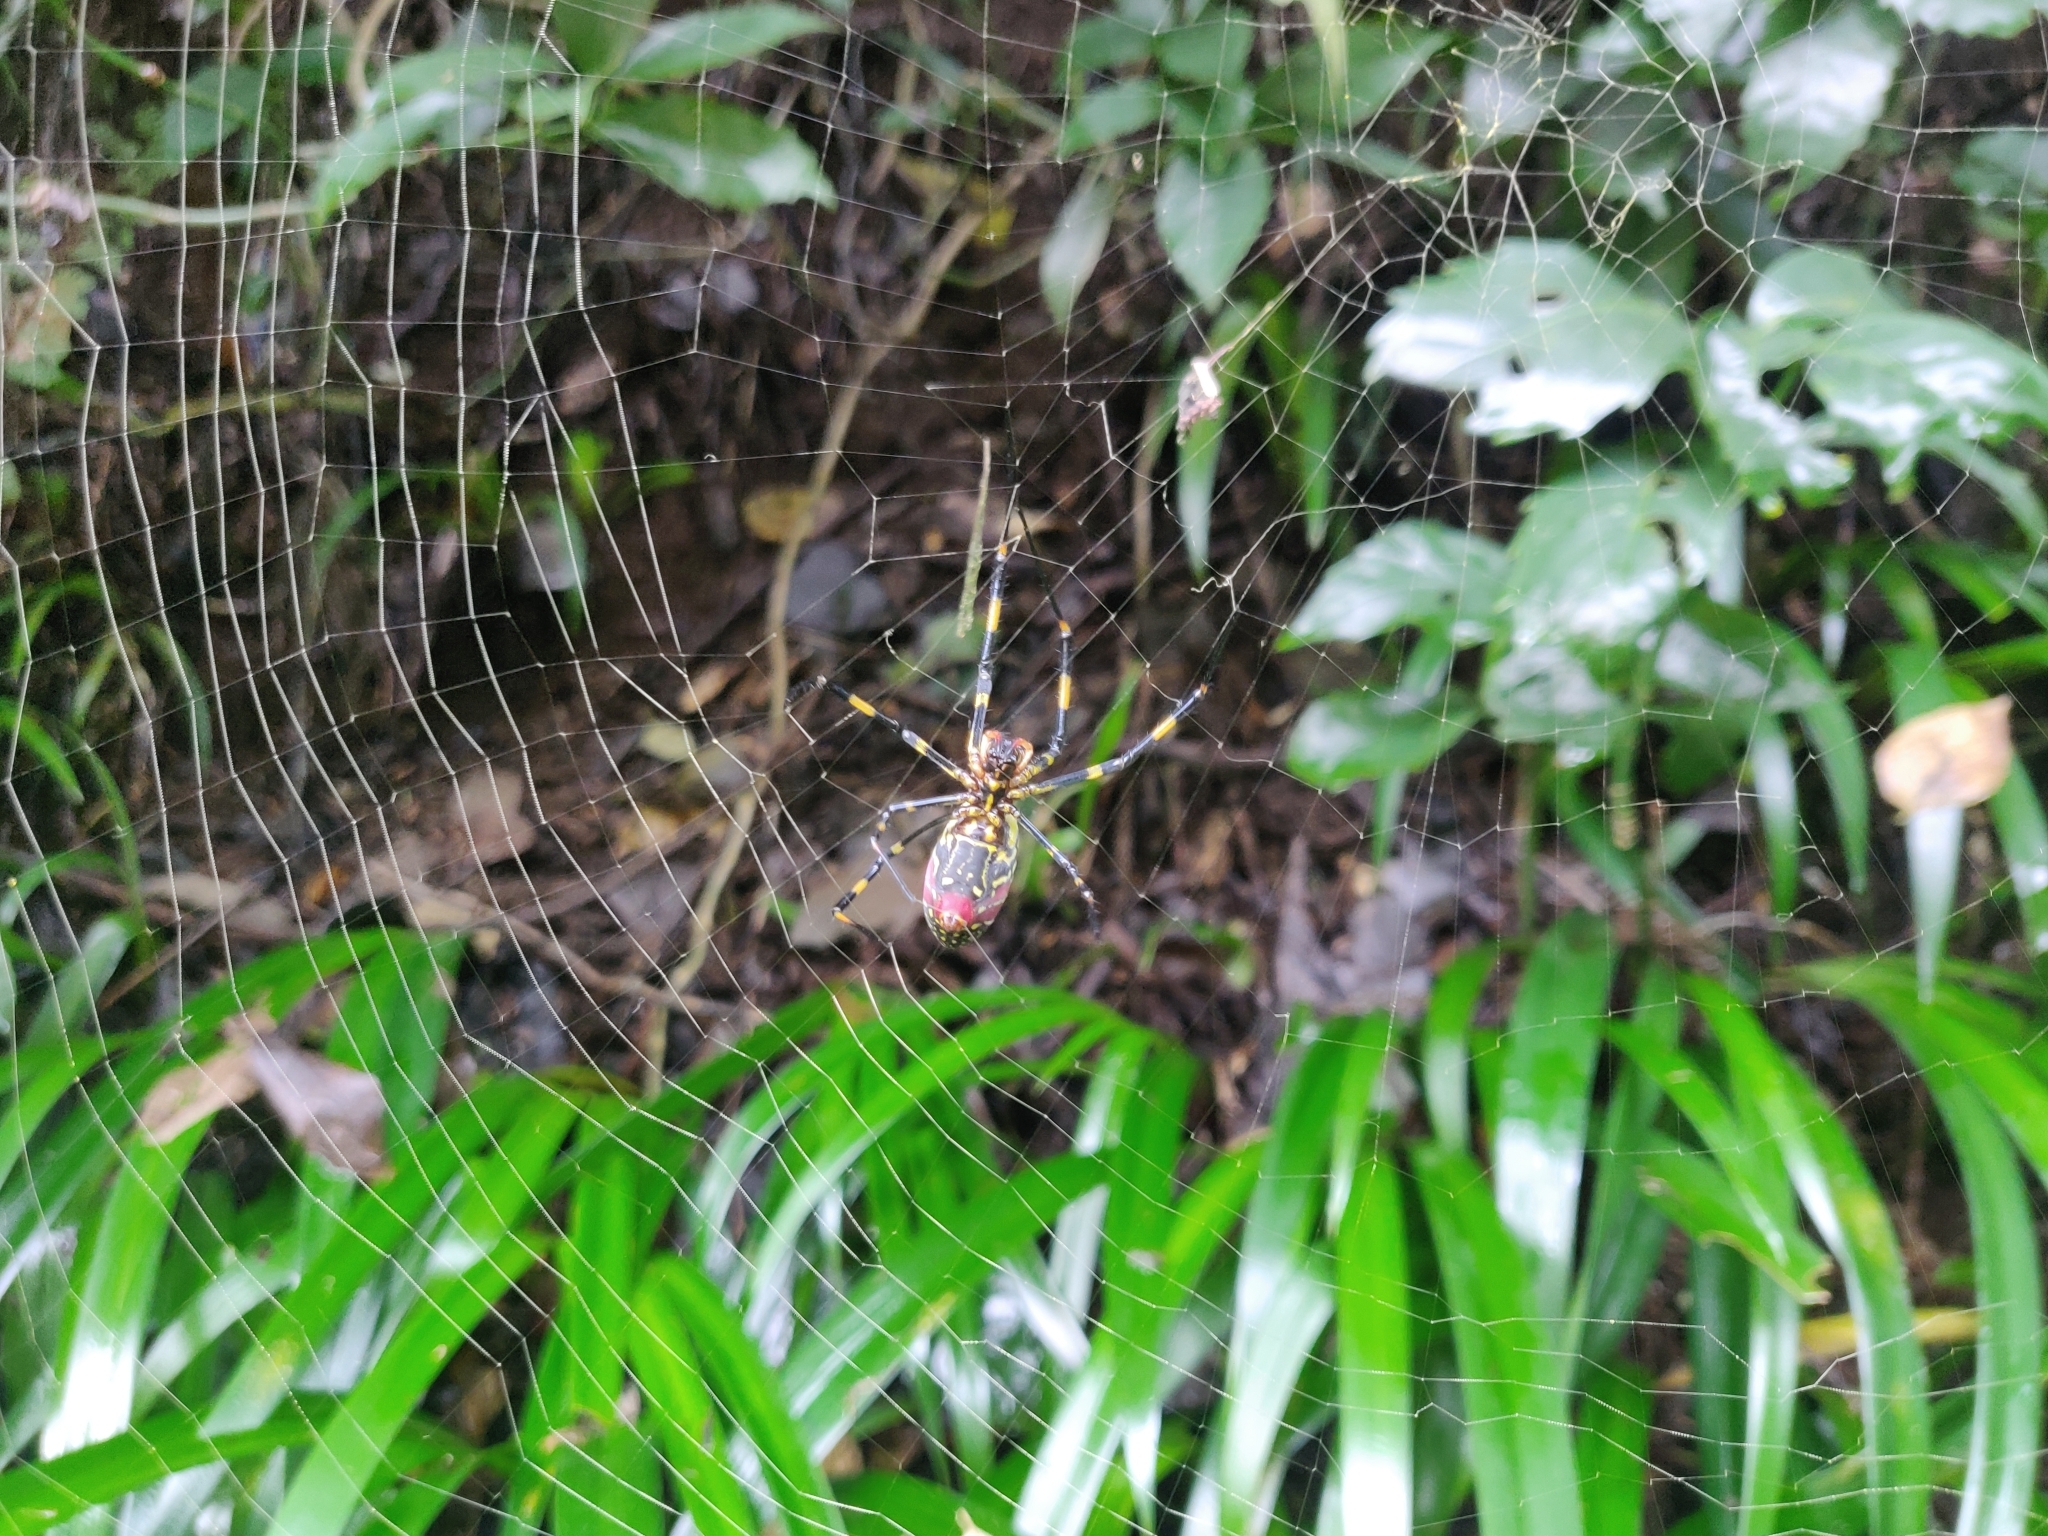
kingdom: Animalia
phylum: Arthropoda
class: Arachnida
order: Araneae
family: Araneidae
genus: Trichonephila
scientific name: Trichonephila clavata
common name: Jorō spider
